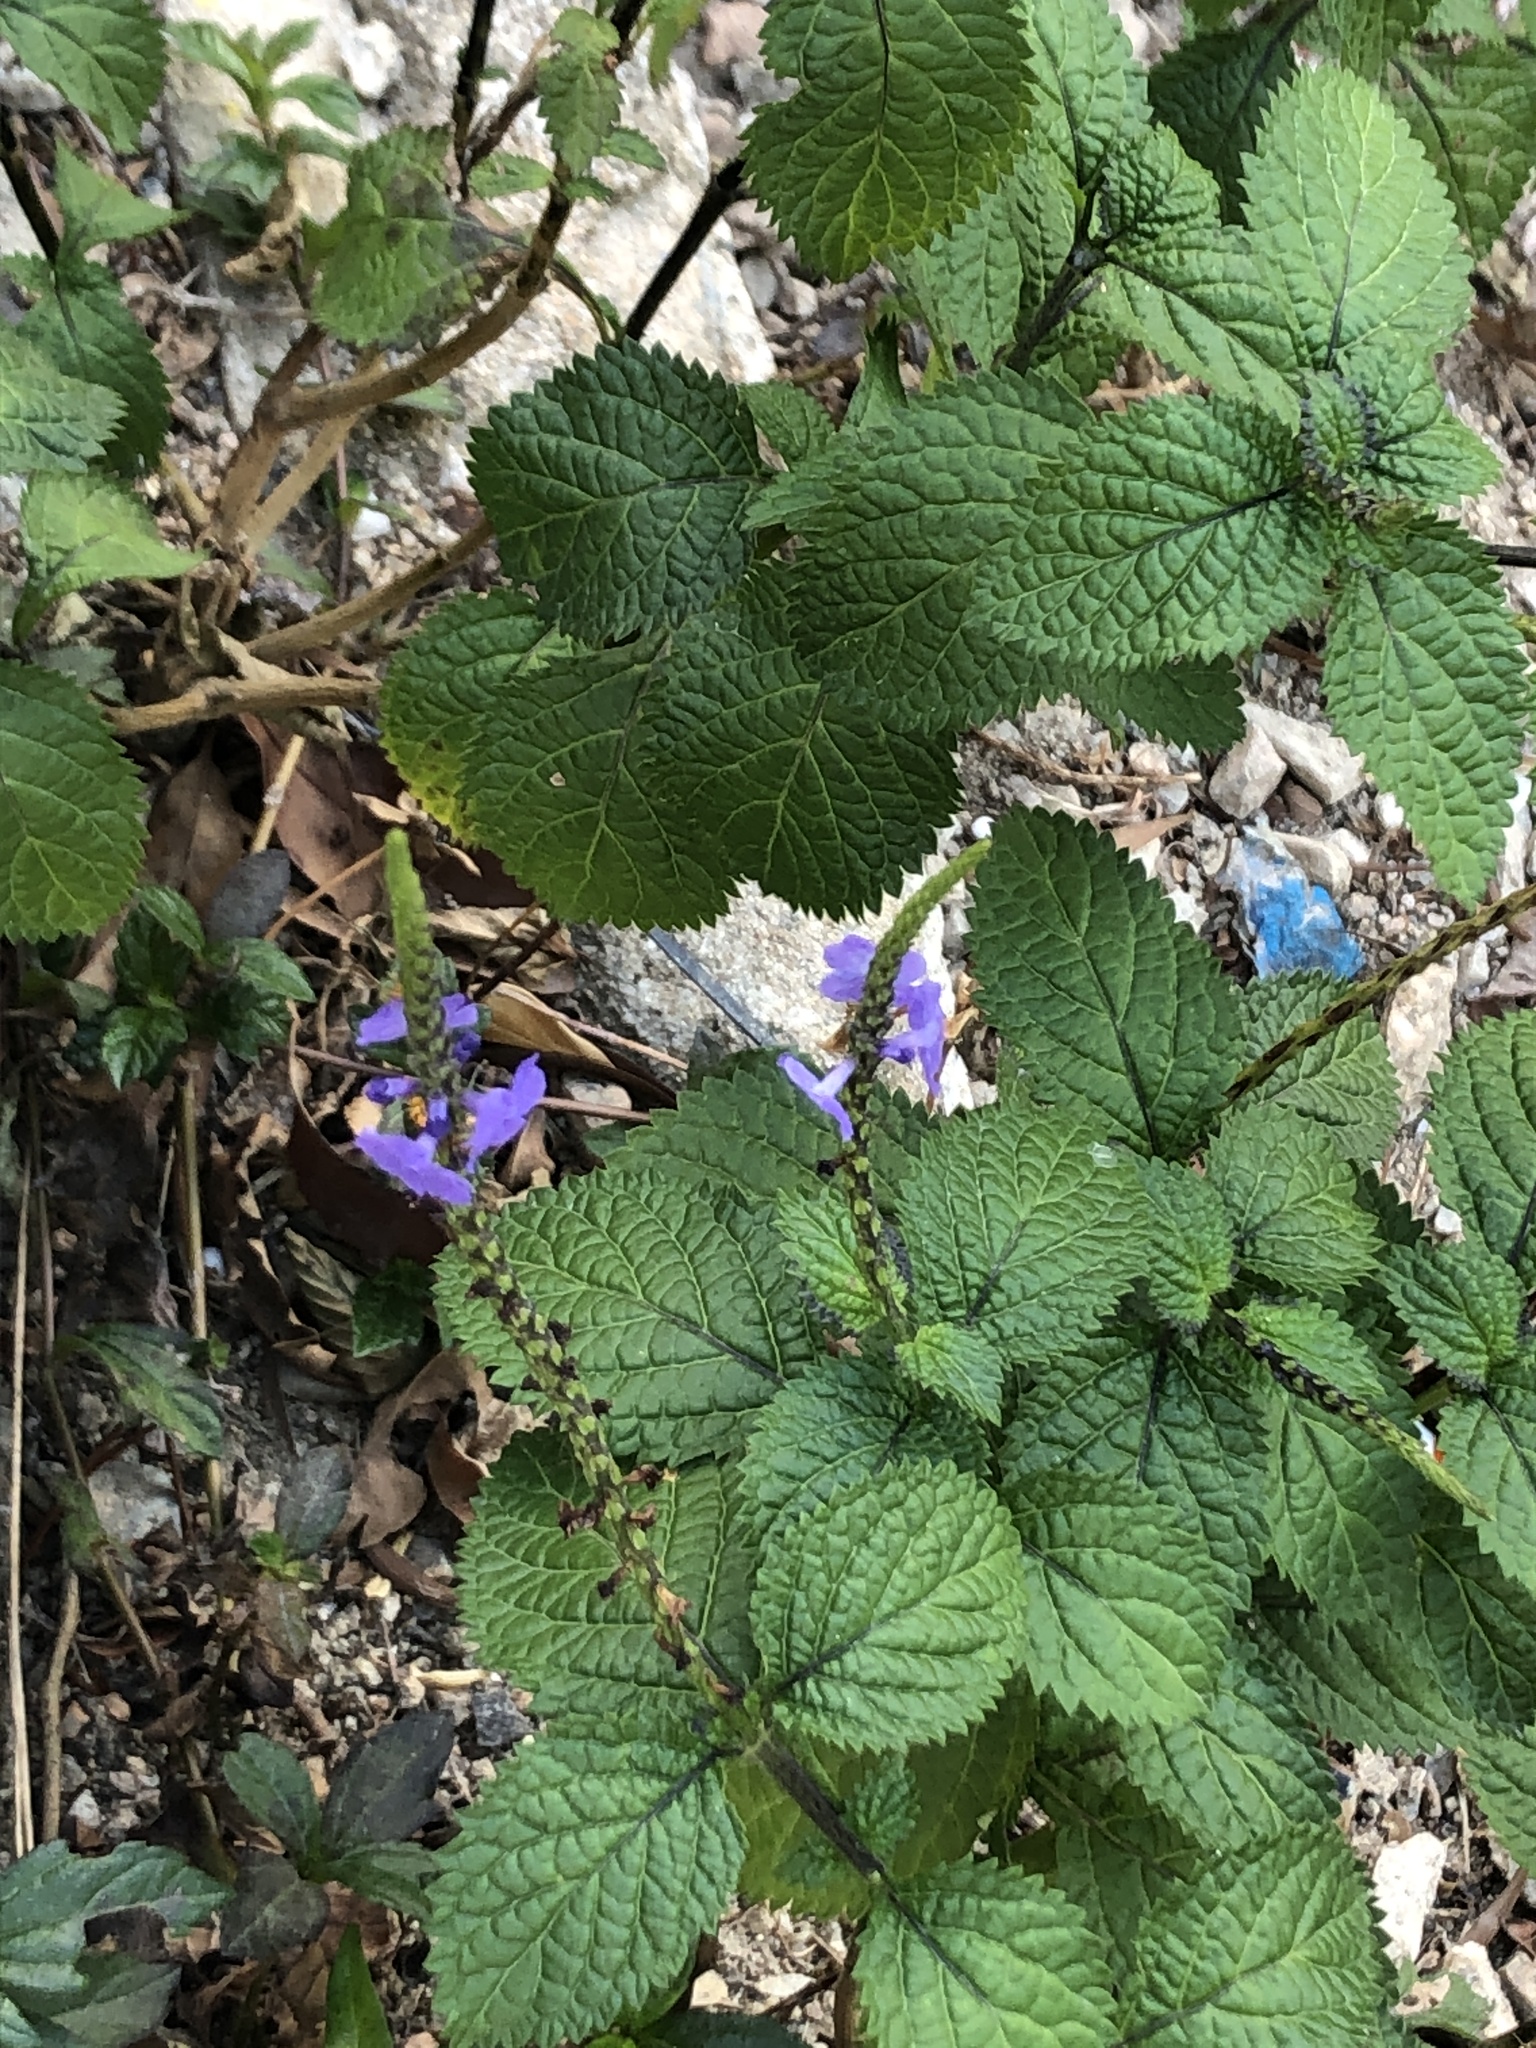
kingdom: Plantae
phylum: Tracheophyta
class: Magnoliopsida
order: Lamiales
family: Verbenaceae
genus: Stachytarpheta
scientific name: Stachytarpheta urticifolia
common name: Nettleleaf velvetberry
